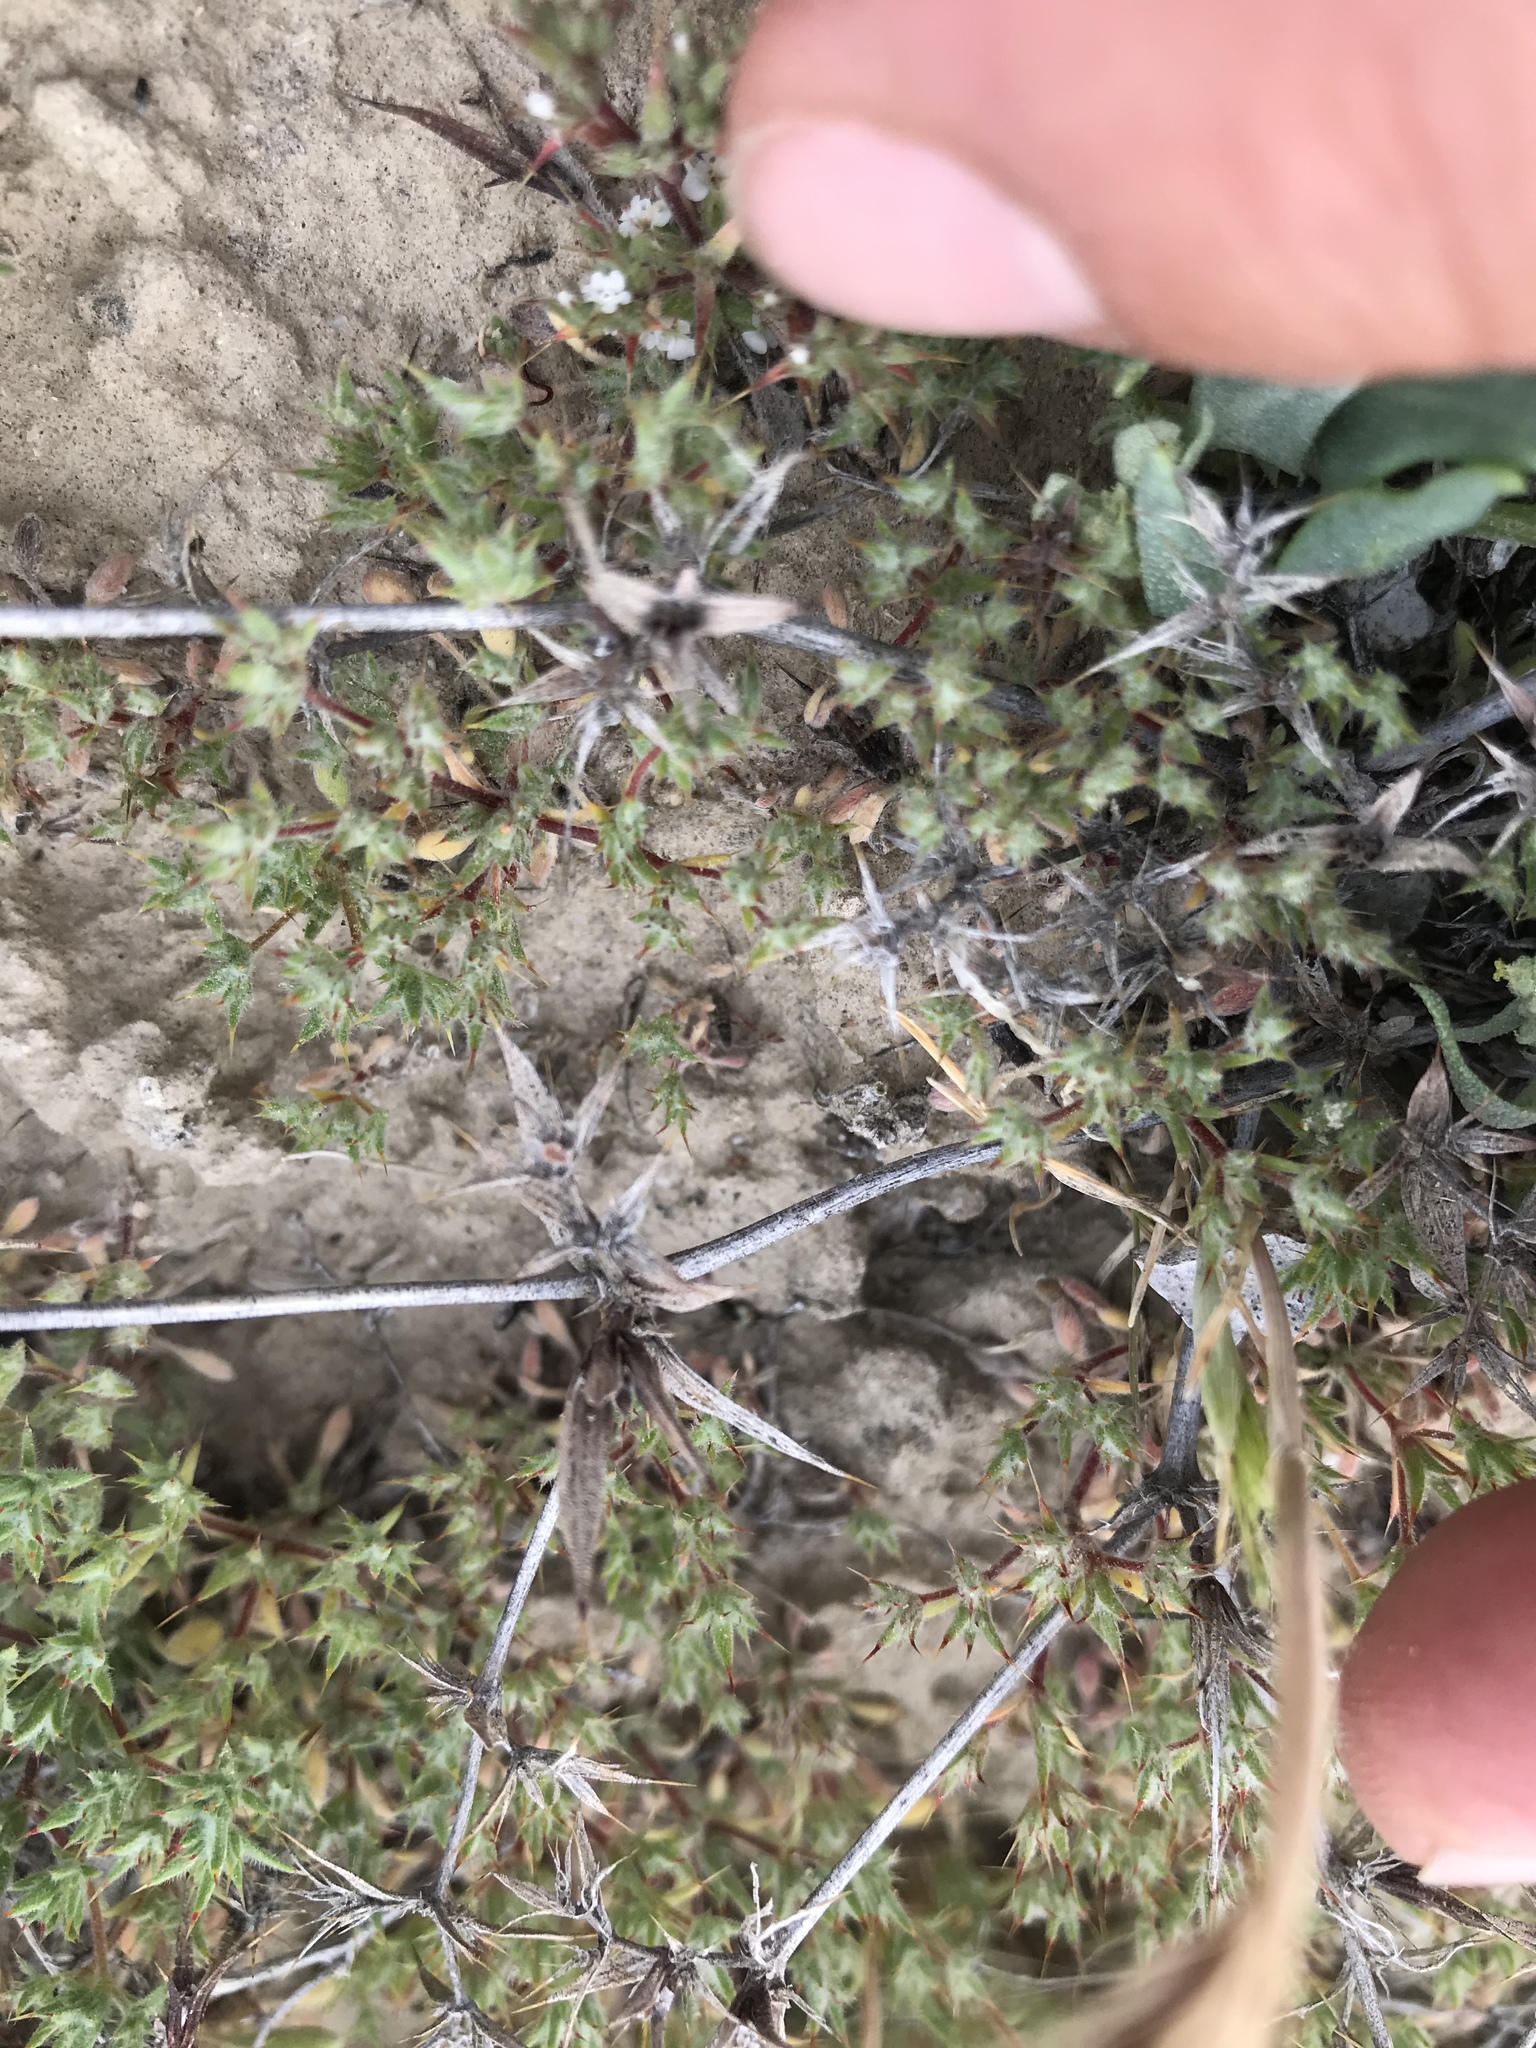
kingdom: Plantae
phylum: Tracheophyta
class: Magnoliopsida
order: Caryophyllales
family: Polygonaceae
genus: Chorizanthe
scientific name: Chorizanthe spinosa
